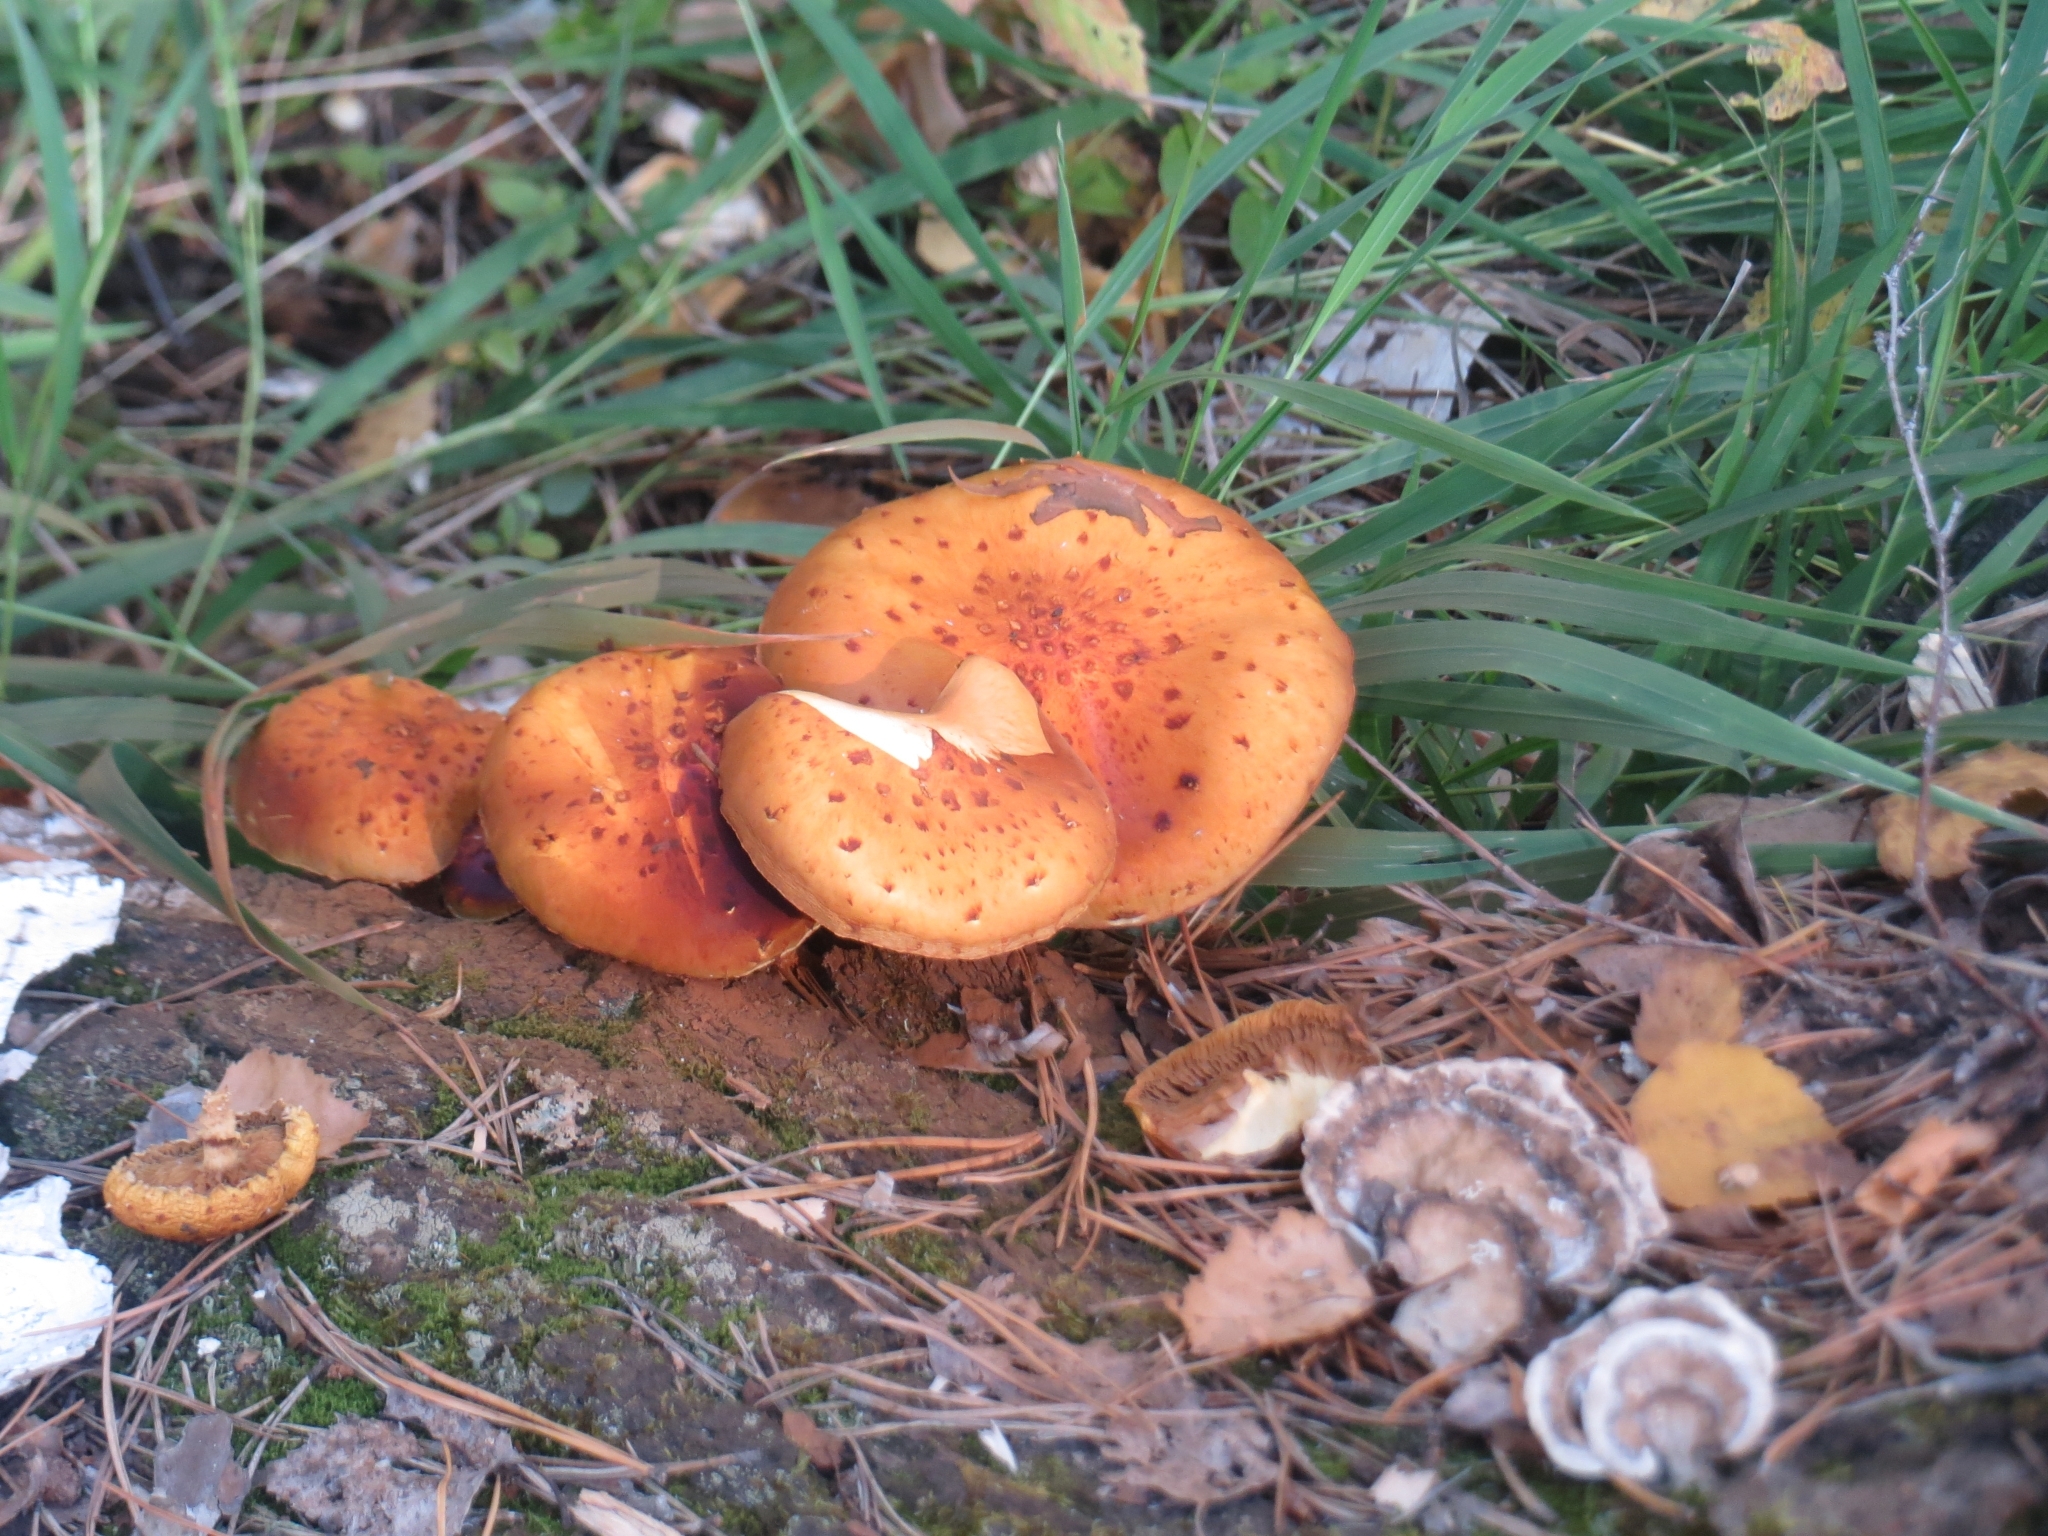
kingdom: Fungi
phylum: Basidiomycota
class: Agaricomycetes
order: Agaricales
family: Strophariaceae
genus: Pholiota
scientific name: Pholiota aurivella
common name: Golden scalycap
